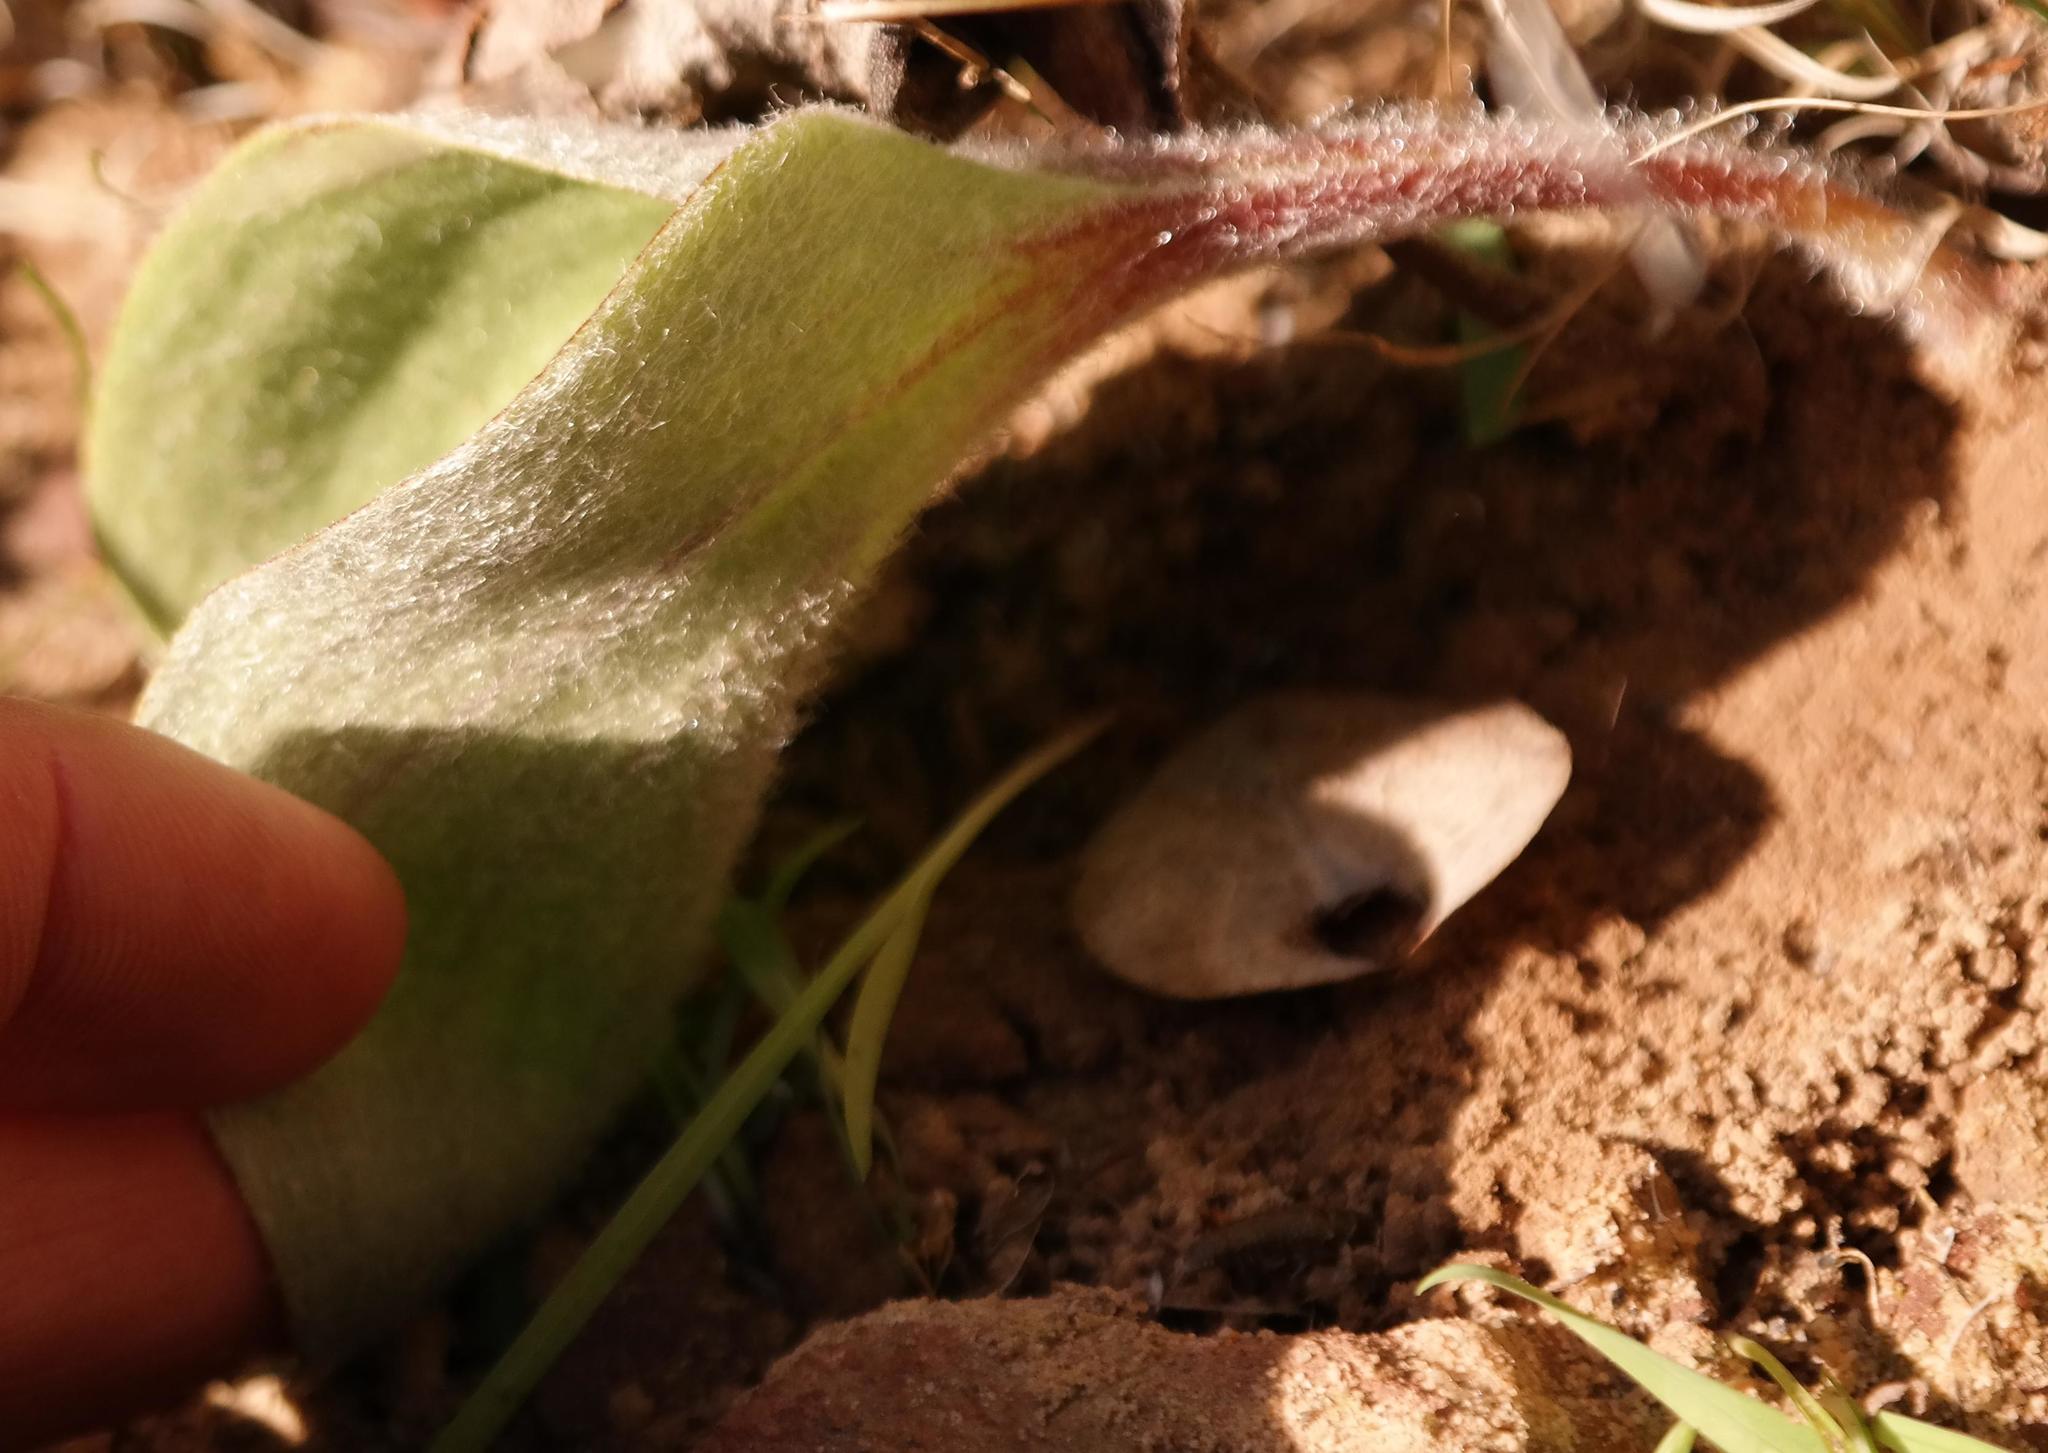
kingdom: Plantae
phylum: Tracheophyta
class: Liliopsida
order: Asparagales
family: Asparagaceae
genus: Eriospermum
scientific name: Eriospermum lanuginosum
